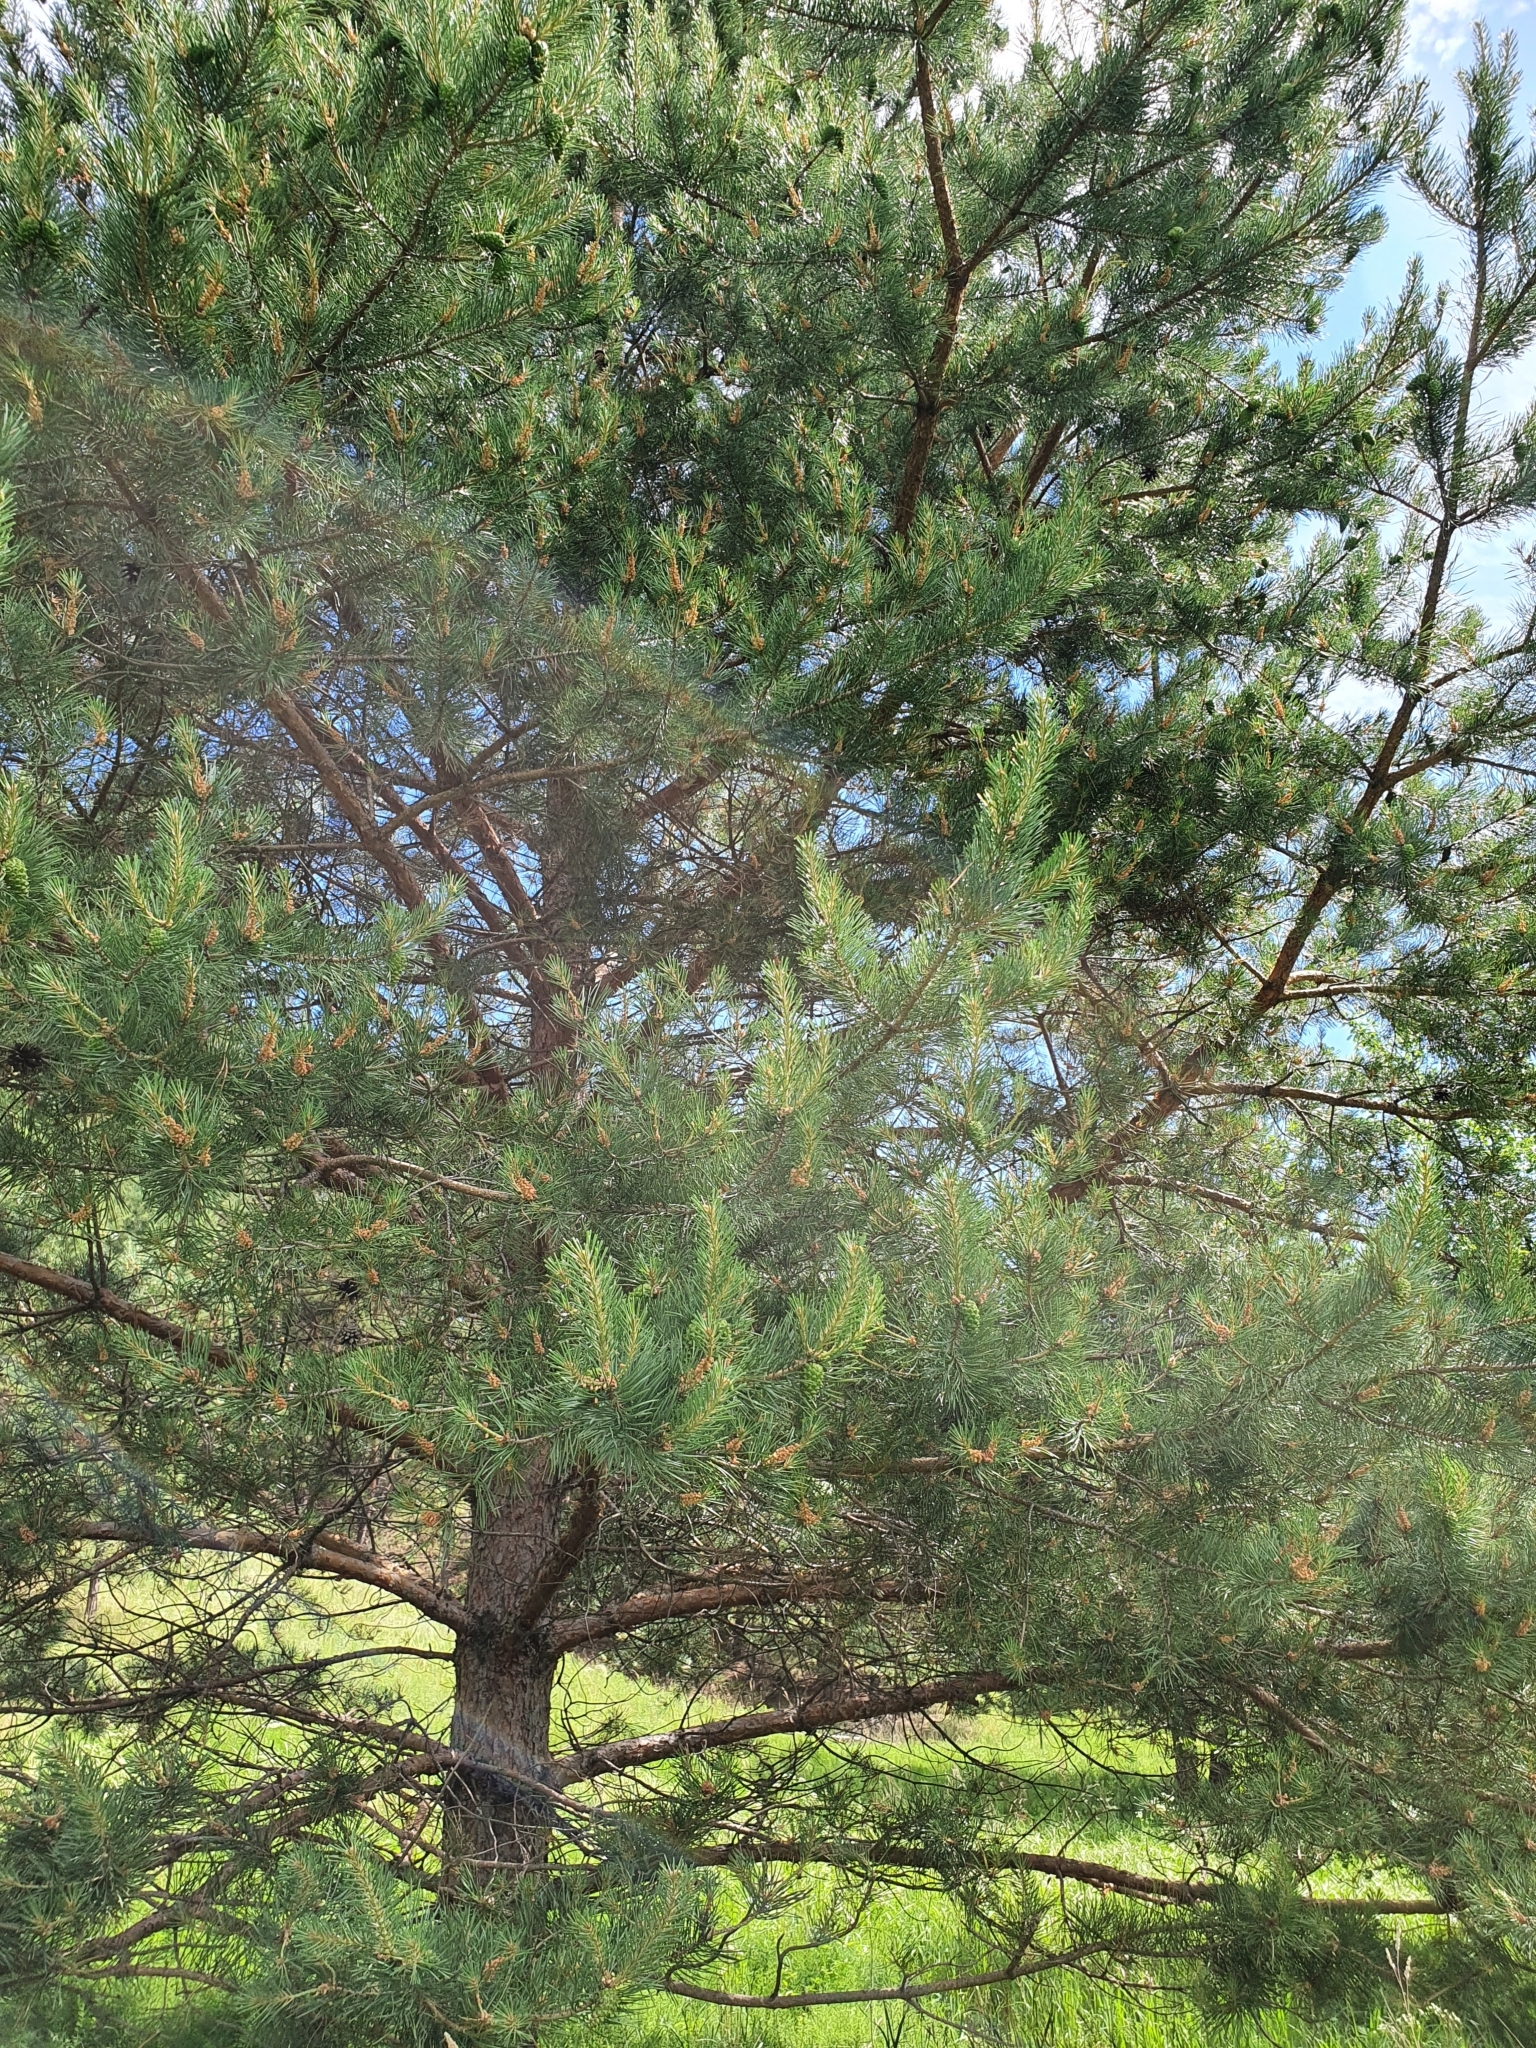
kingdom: Plantae
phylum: Tracheophyta
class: Pinopsida
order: Pinales
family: Pinaceae
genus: Pinus
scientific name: Pinus sylvestris
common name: Scots pine
